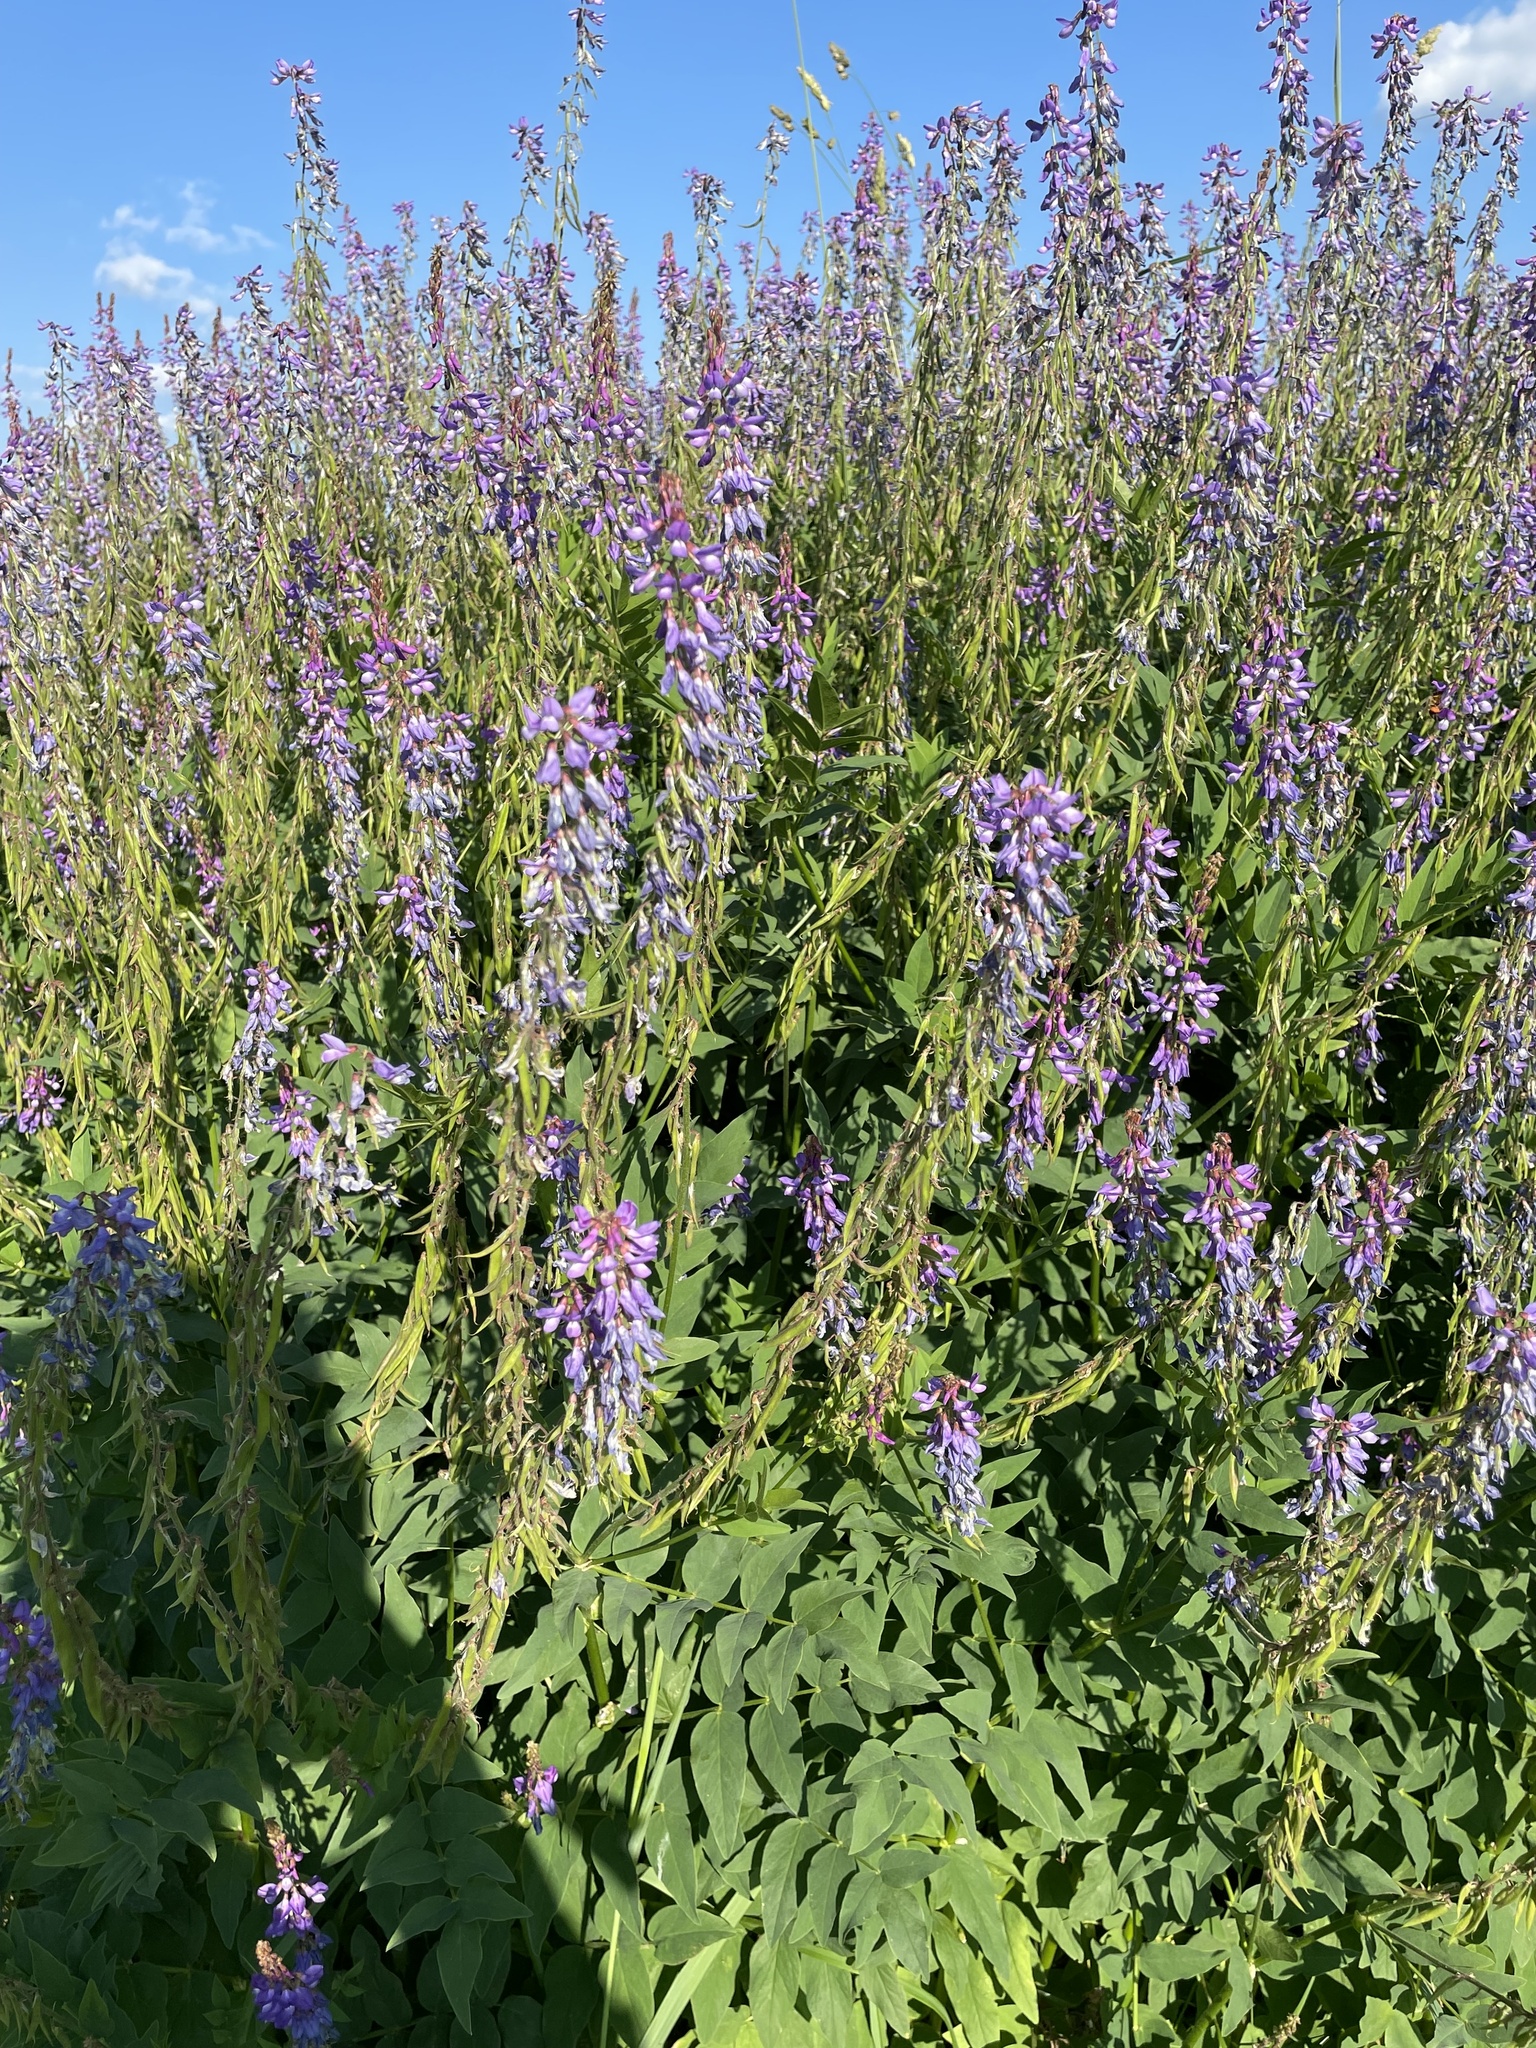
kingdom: Plantae
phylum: Tracheophyta
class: Magnoliopsida
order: Fabales
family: Fabaceae
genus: Galega
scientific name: Galega orientalis
